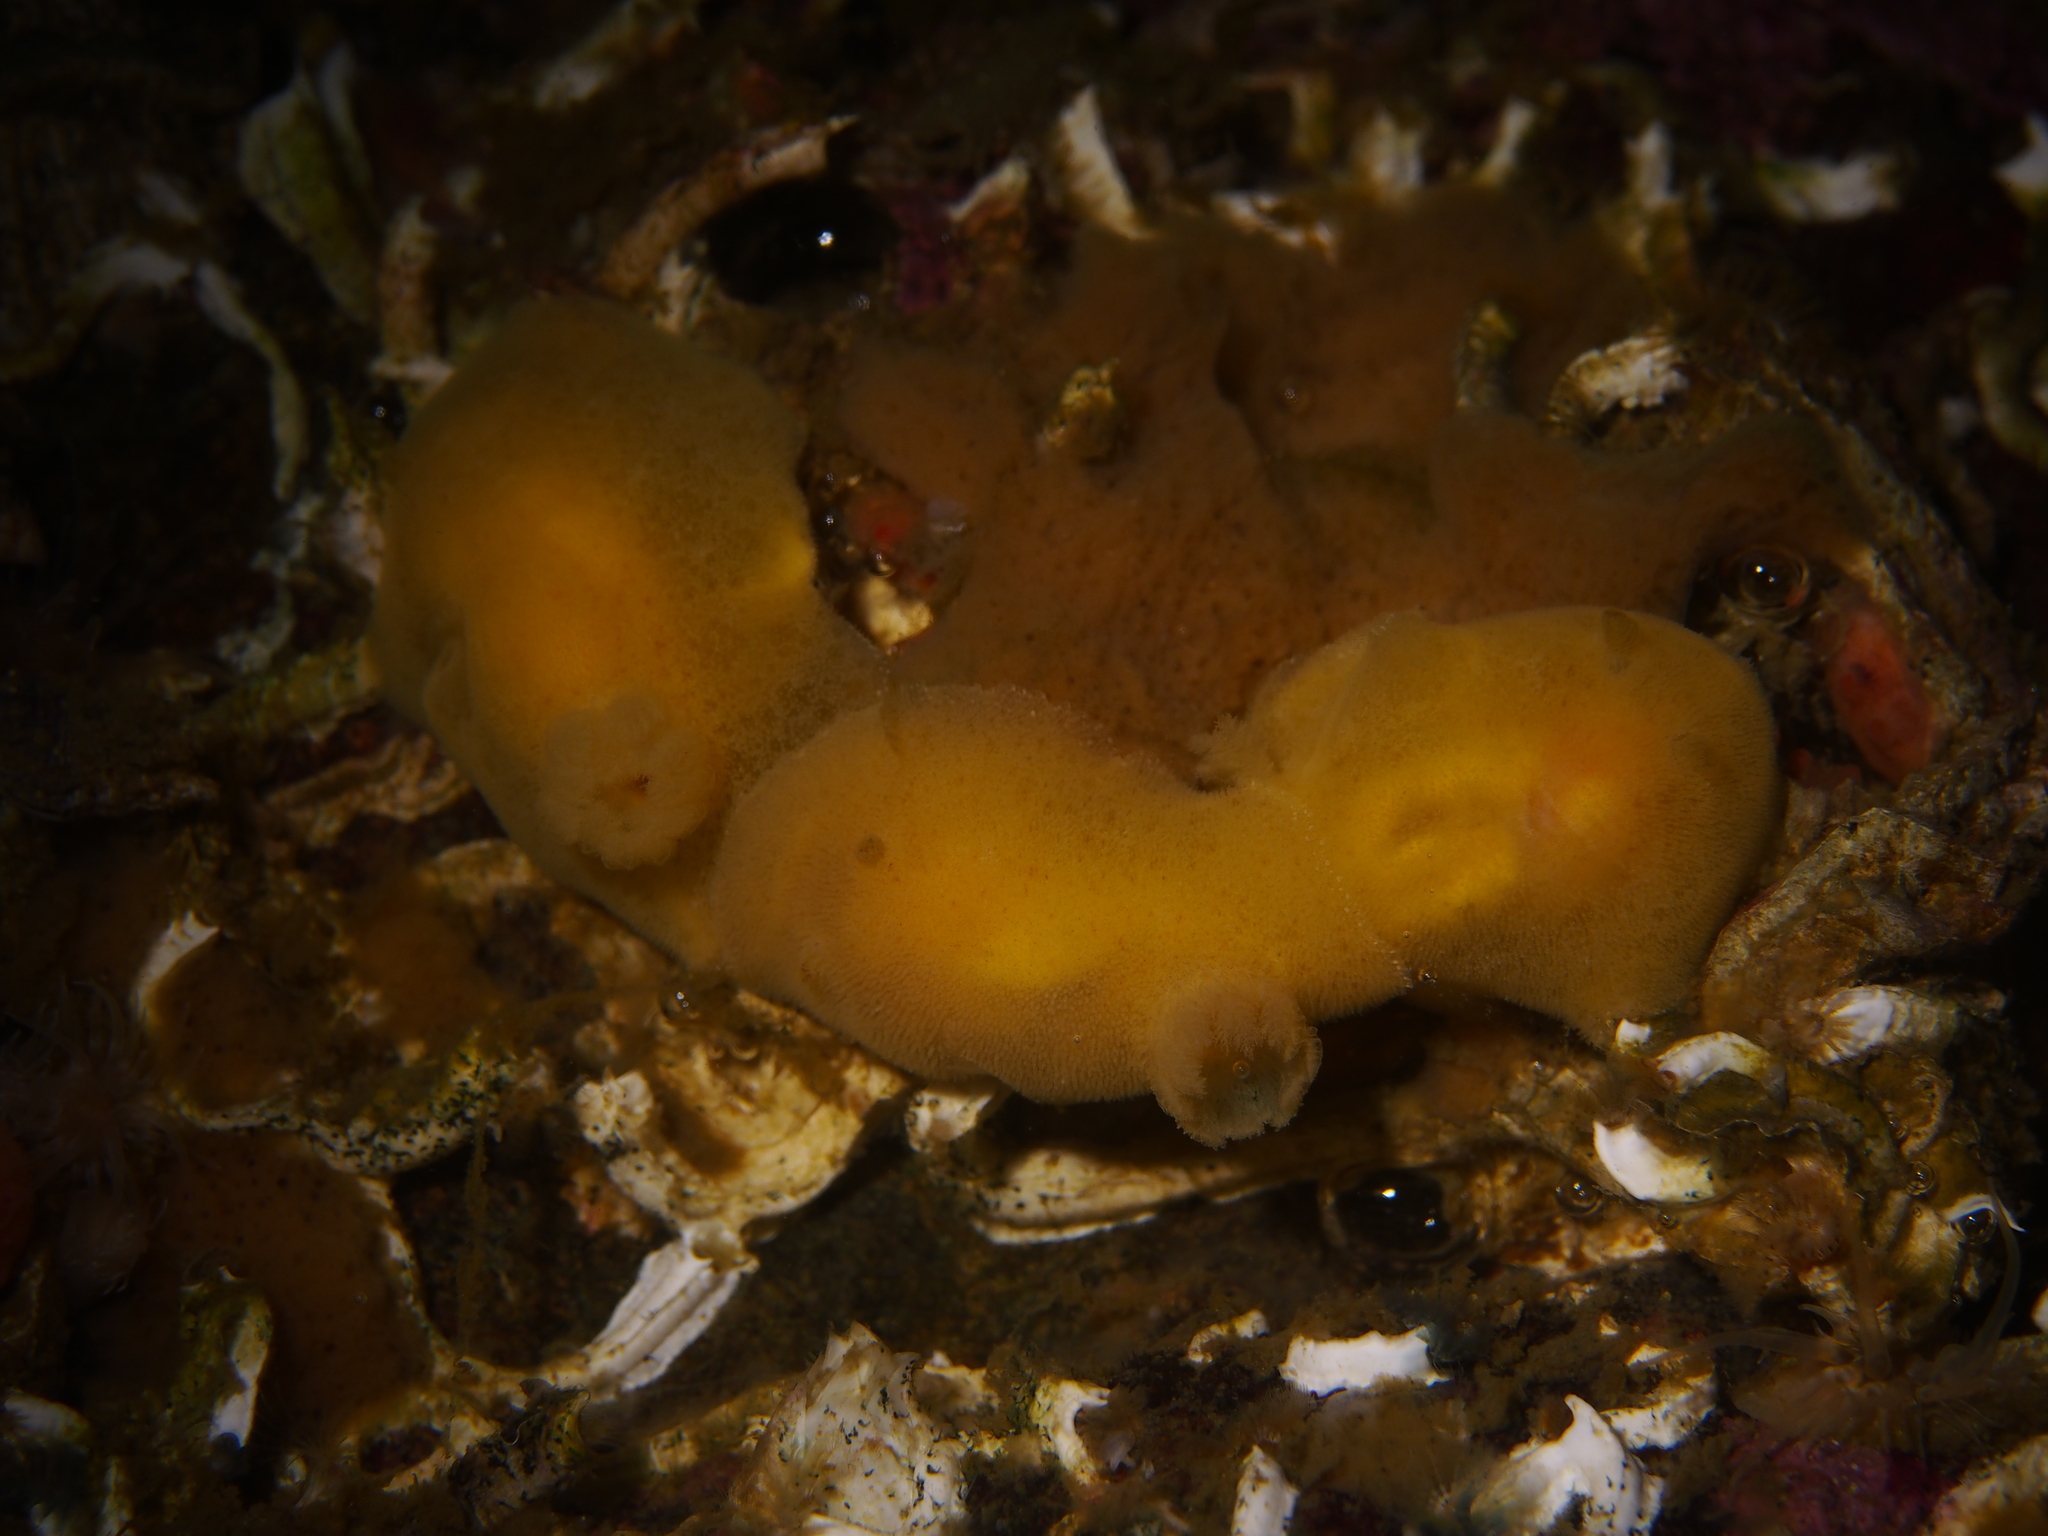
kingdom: Animalia
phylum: Mollusca
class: Gastropoda
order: Nudibranchia
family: Discodorididae
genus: Jorunna
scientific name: Jorunna tomentosa
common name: Grey sea slug
